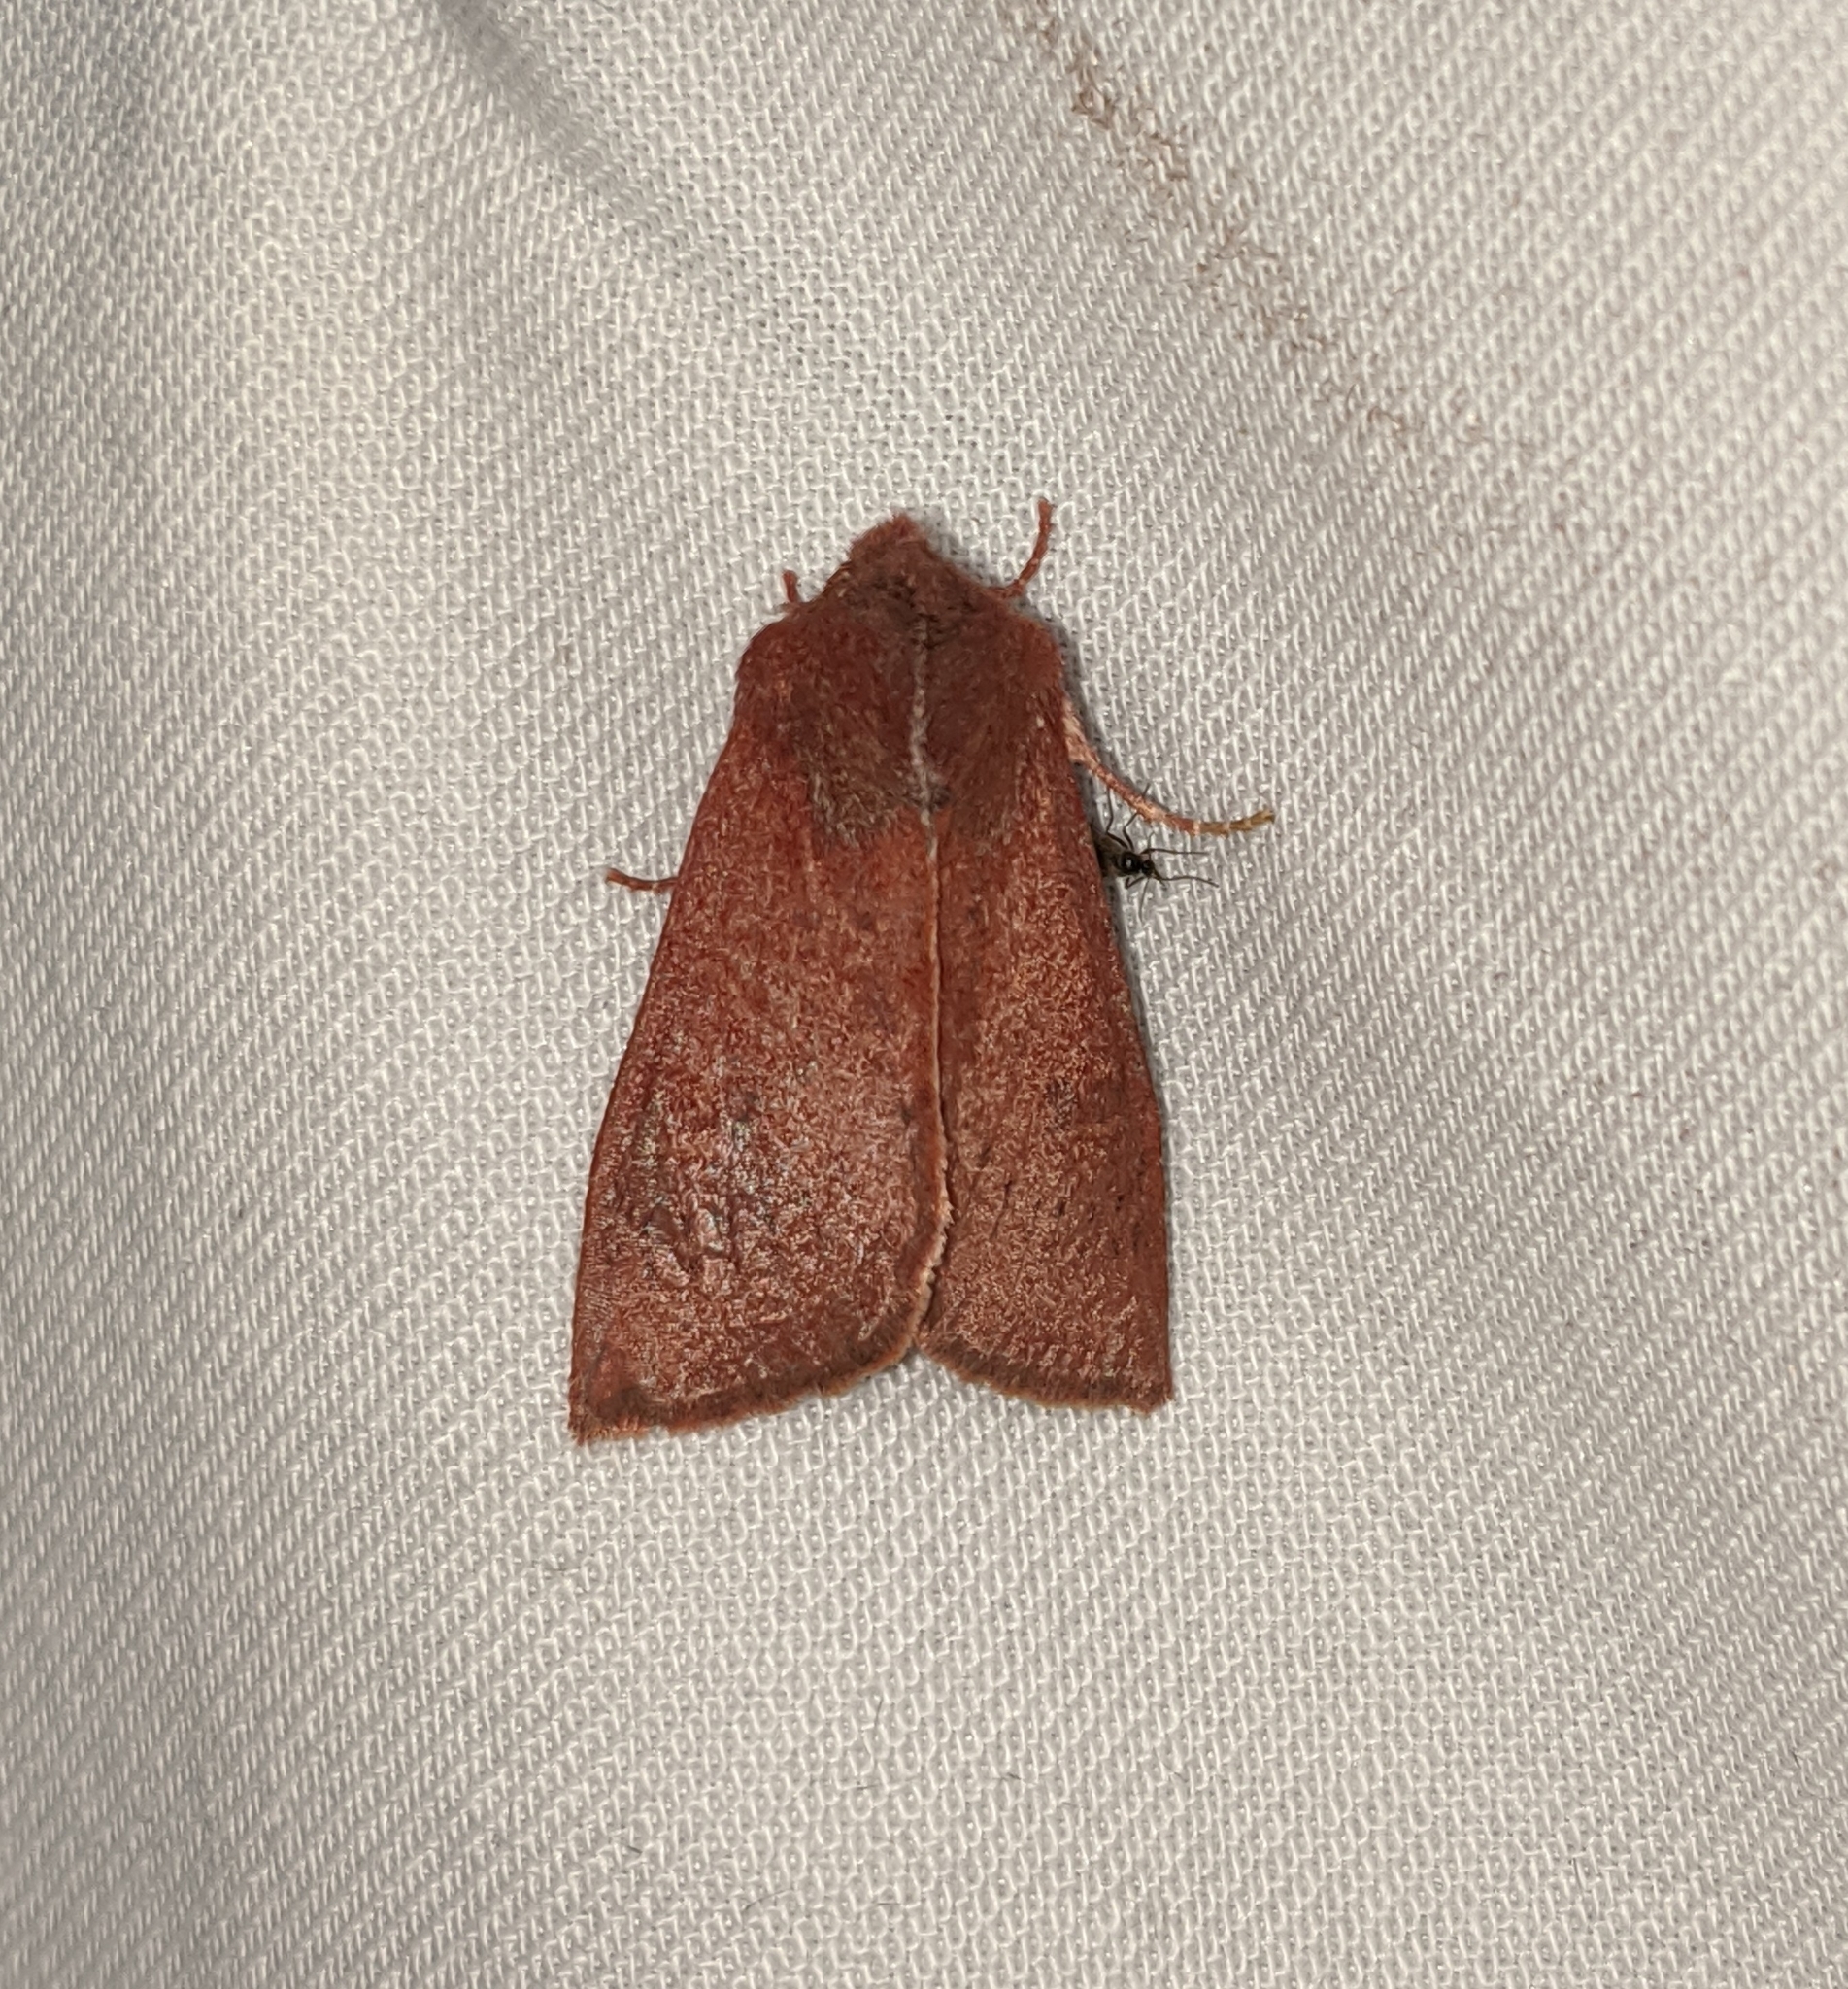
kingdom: Animalia
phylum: Arthropoda
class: Insecta
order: Lepidoptera
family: Noctuidae
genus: Orthosia
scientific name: Orthosia transparens
